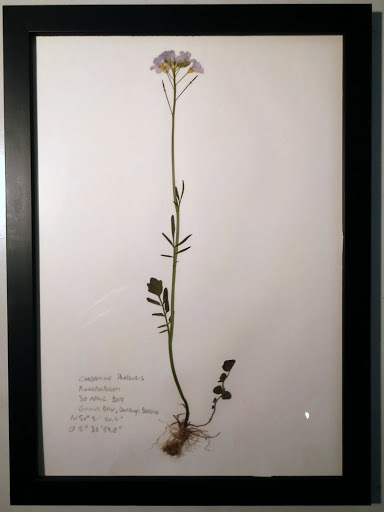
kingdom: Plantae
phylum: Tracheophyta
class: Magnoliopsida
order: Brassicales
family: Brassicaceae
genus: Cardamine
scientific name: Cardamine pratensis
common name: Cuckoo flower
